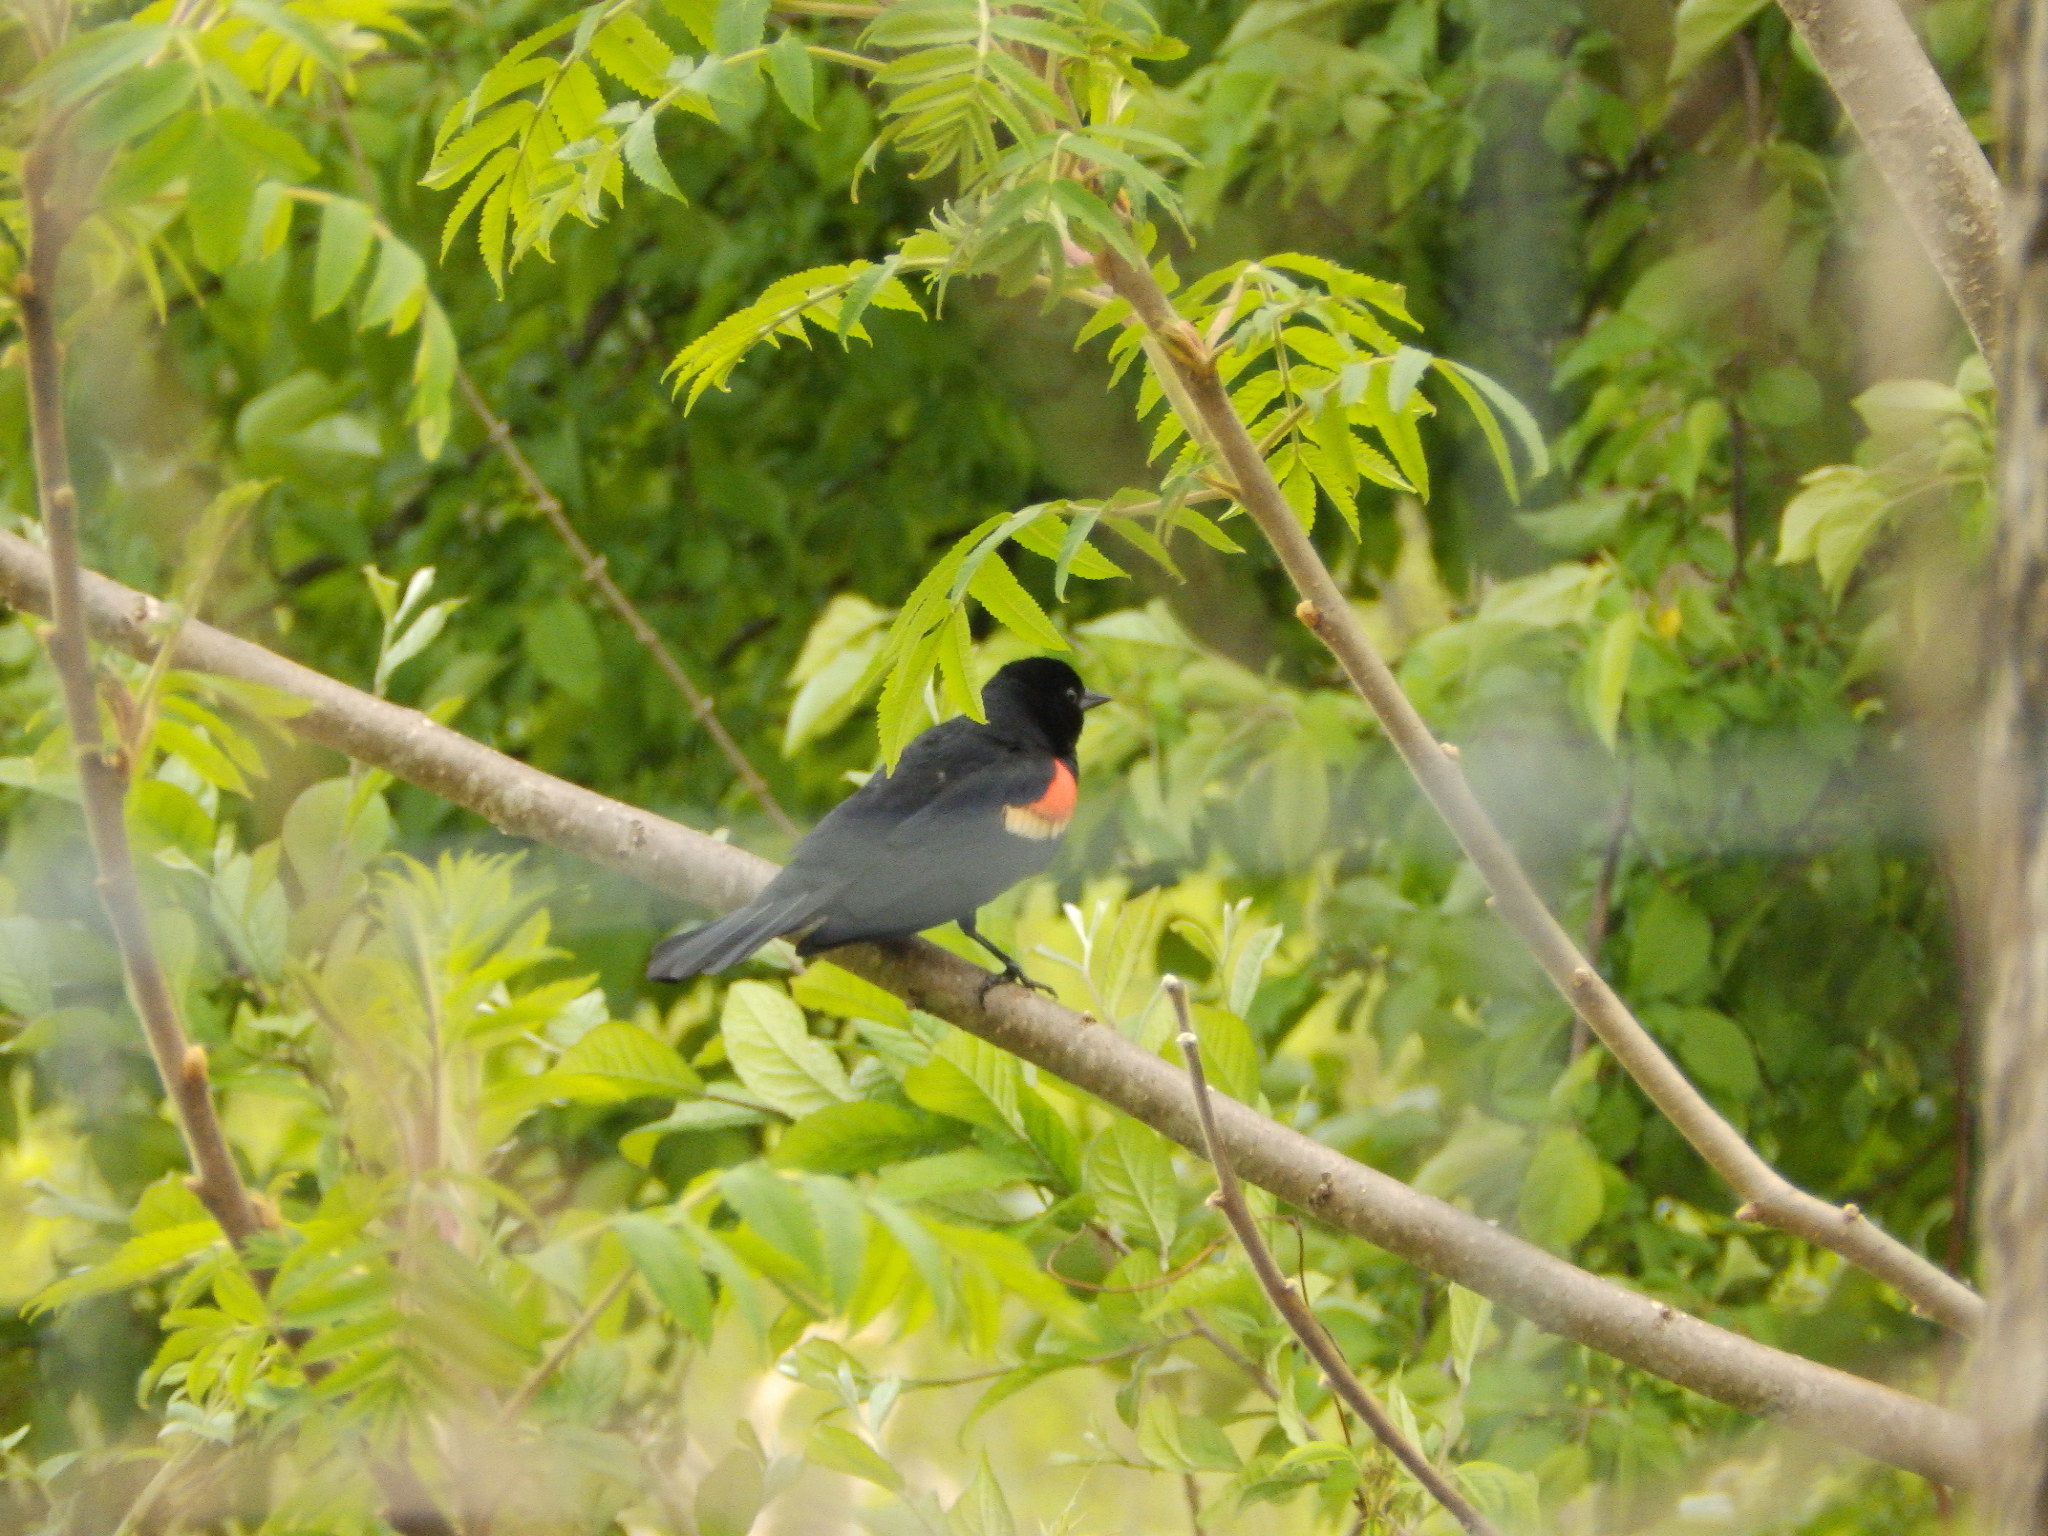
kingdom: Animalia
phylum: Chordata
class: Aves
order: Passeriformes
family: Icteridae
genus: Agelaius
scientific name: Agelaius phoeniceus
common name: Red-winged blackbird
